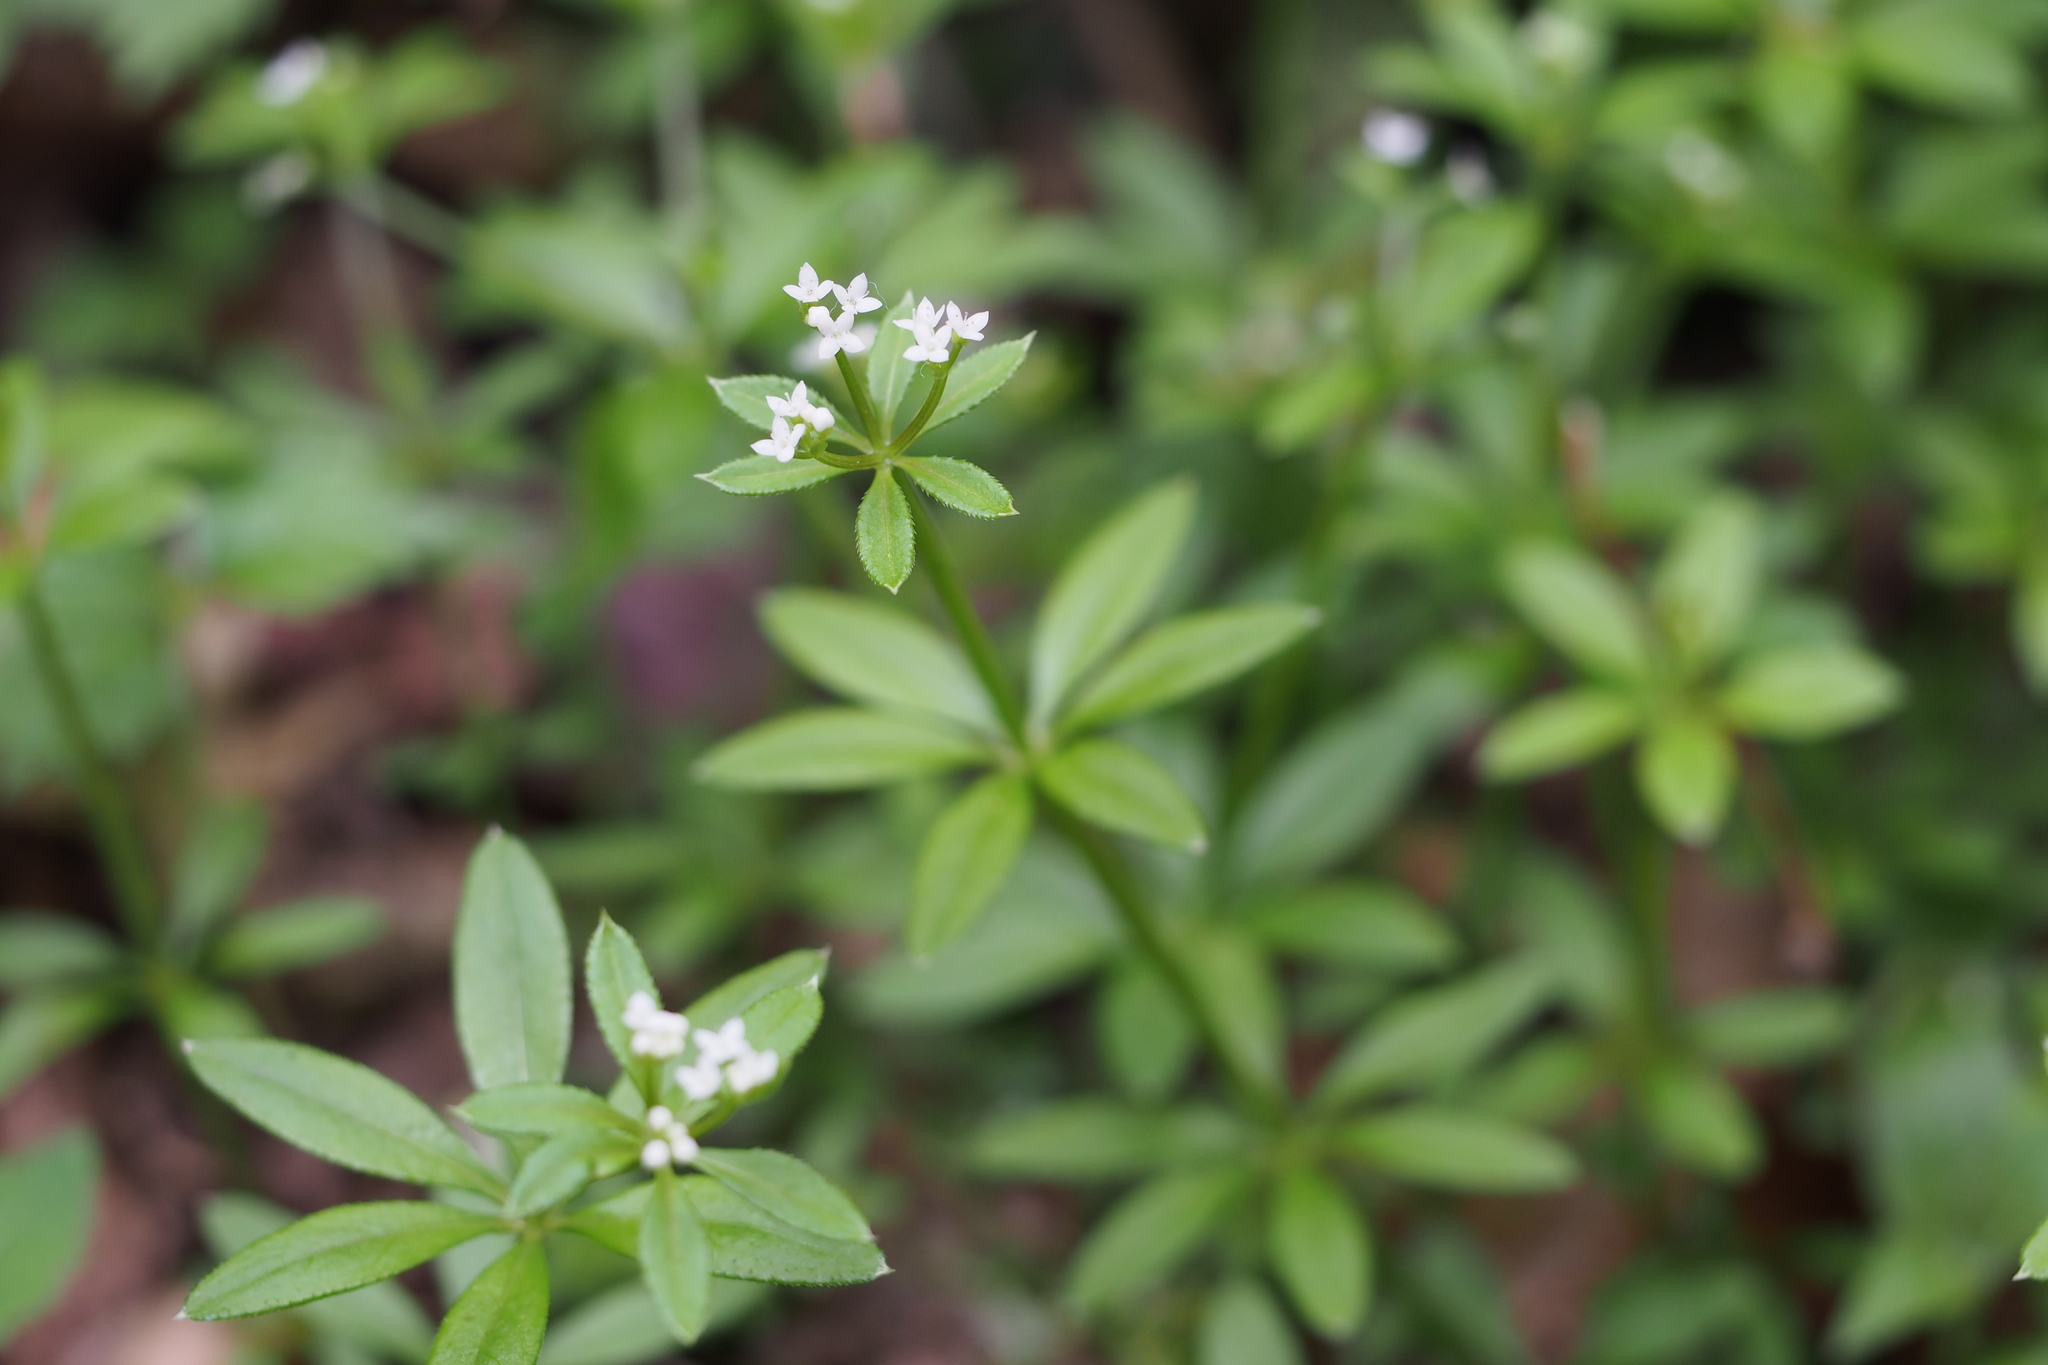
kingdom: Plantae
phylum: Tracheophyta
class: Magnoliopsida
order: Gentianales
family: Rubiaceae
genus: Galium
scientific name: Galium
